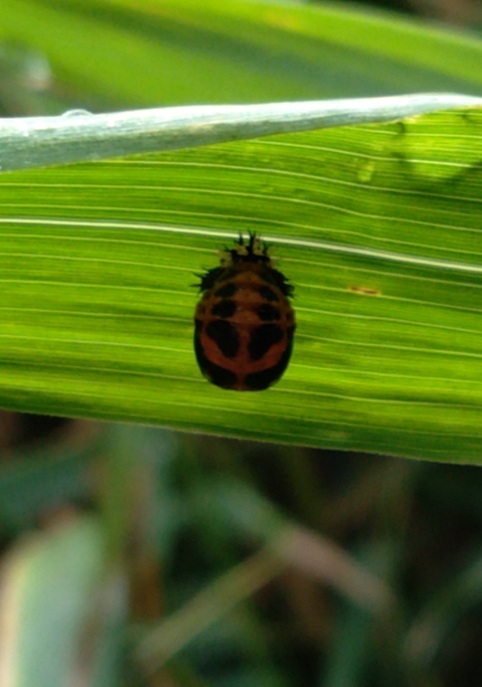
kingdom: Animalia
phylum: Arthropoda
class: Insecta
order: Coleoptera
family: Coccinellidae
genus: Harmonia
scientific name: Harmonia axyridis
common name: Harlequin ladybird
